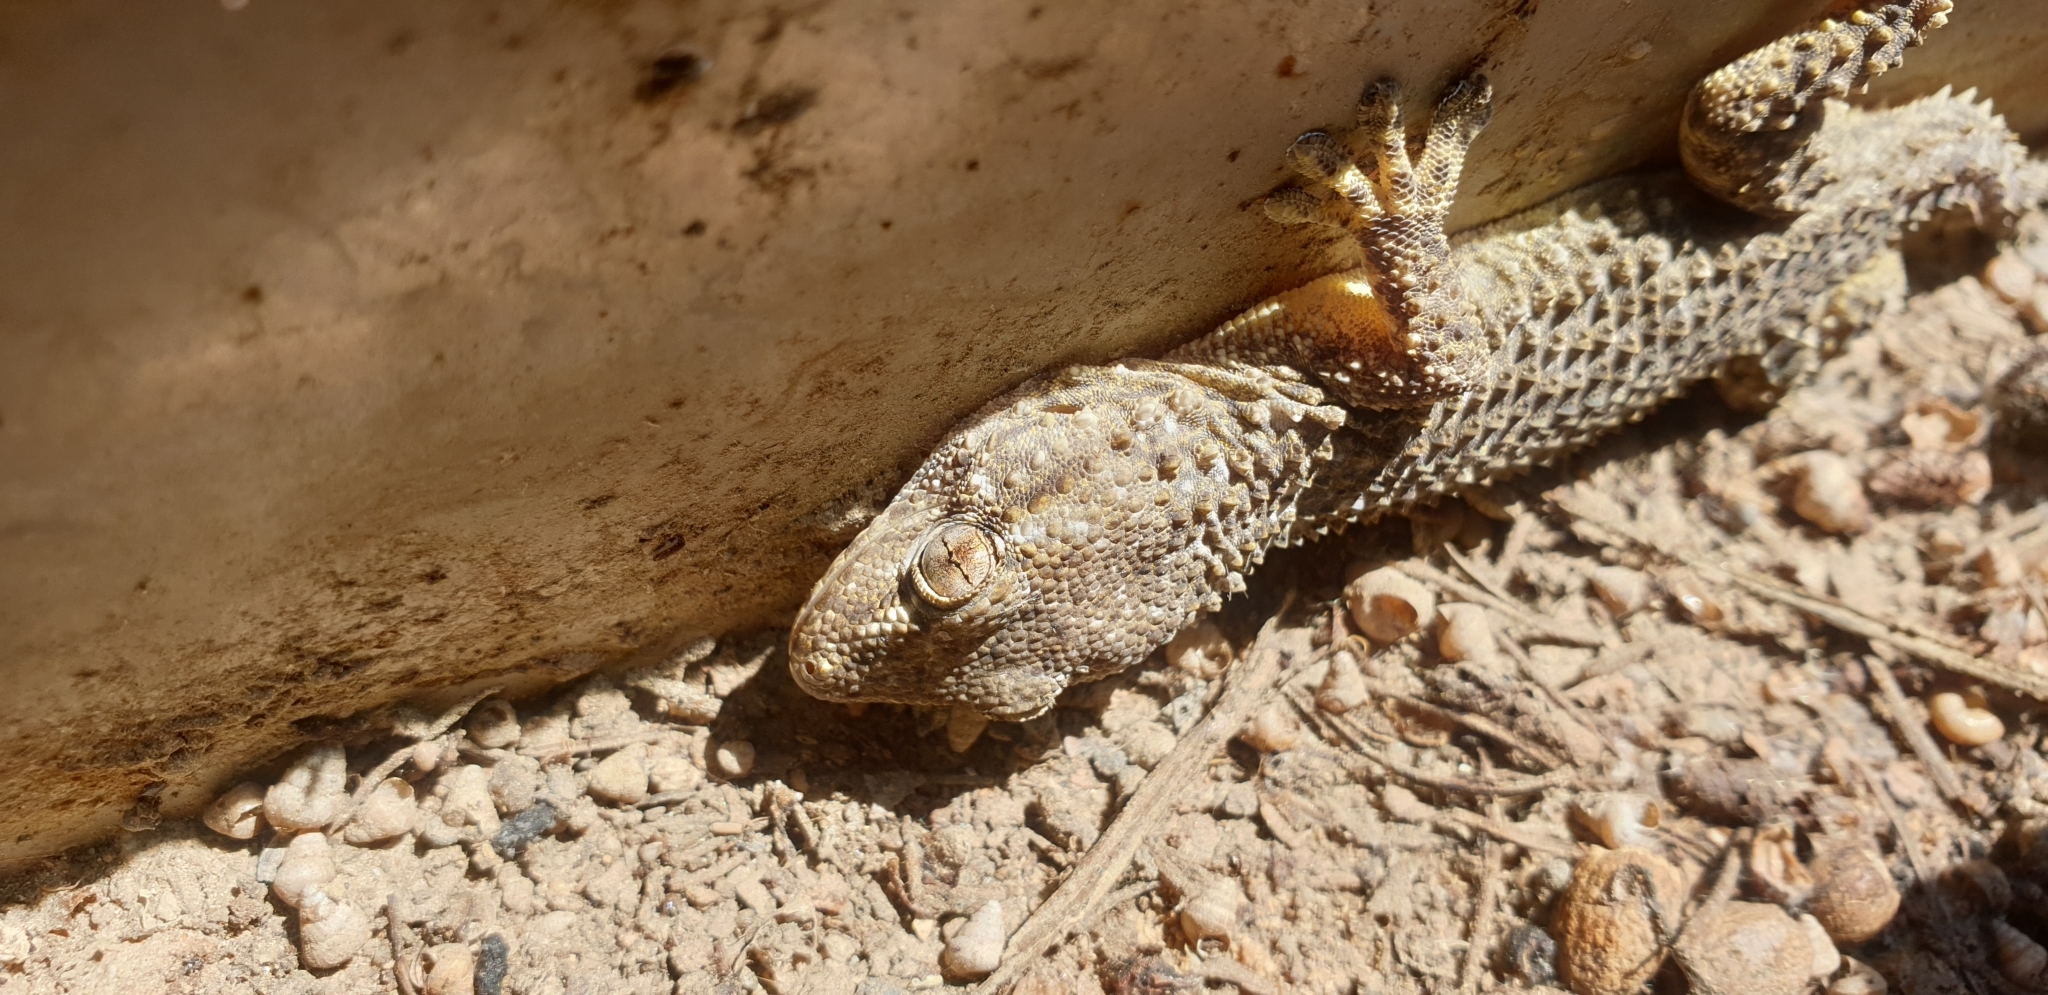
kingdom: Animalia
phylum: Chordata
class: Squamata
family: Phyllodactylidae
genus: Tarentola
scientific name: Tarentola mauritanica
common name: Moorish gecko
